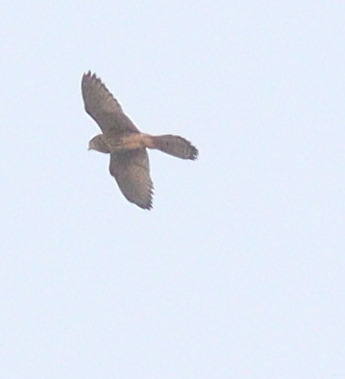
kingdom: Animalia
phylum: Chordata
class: Aves
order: Falconiformes
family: Falconidae
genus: Falco
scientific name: Falco tinnunculus
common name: Common kestrel
